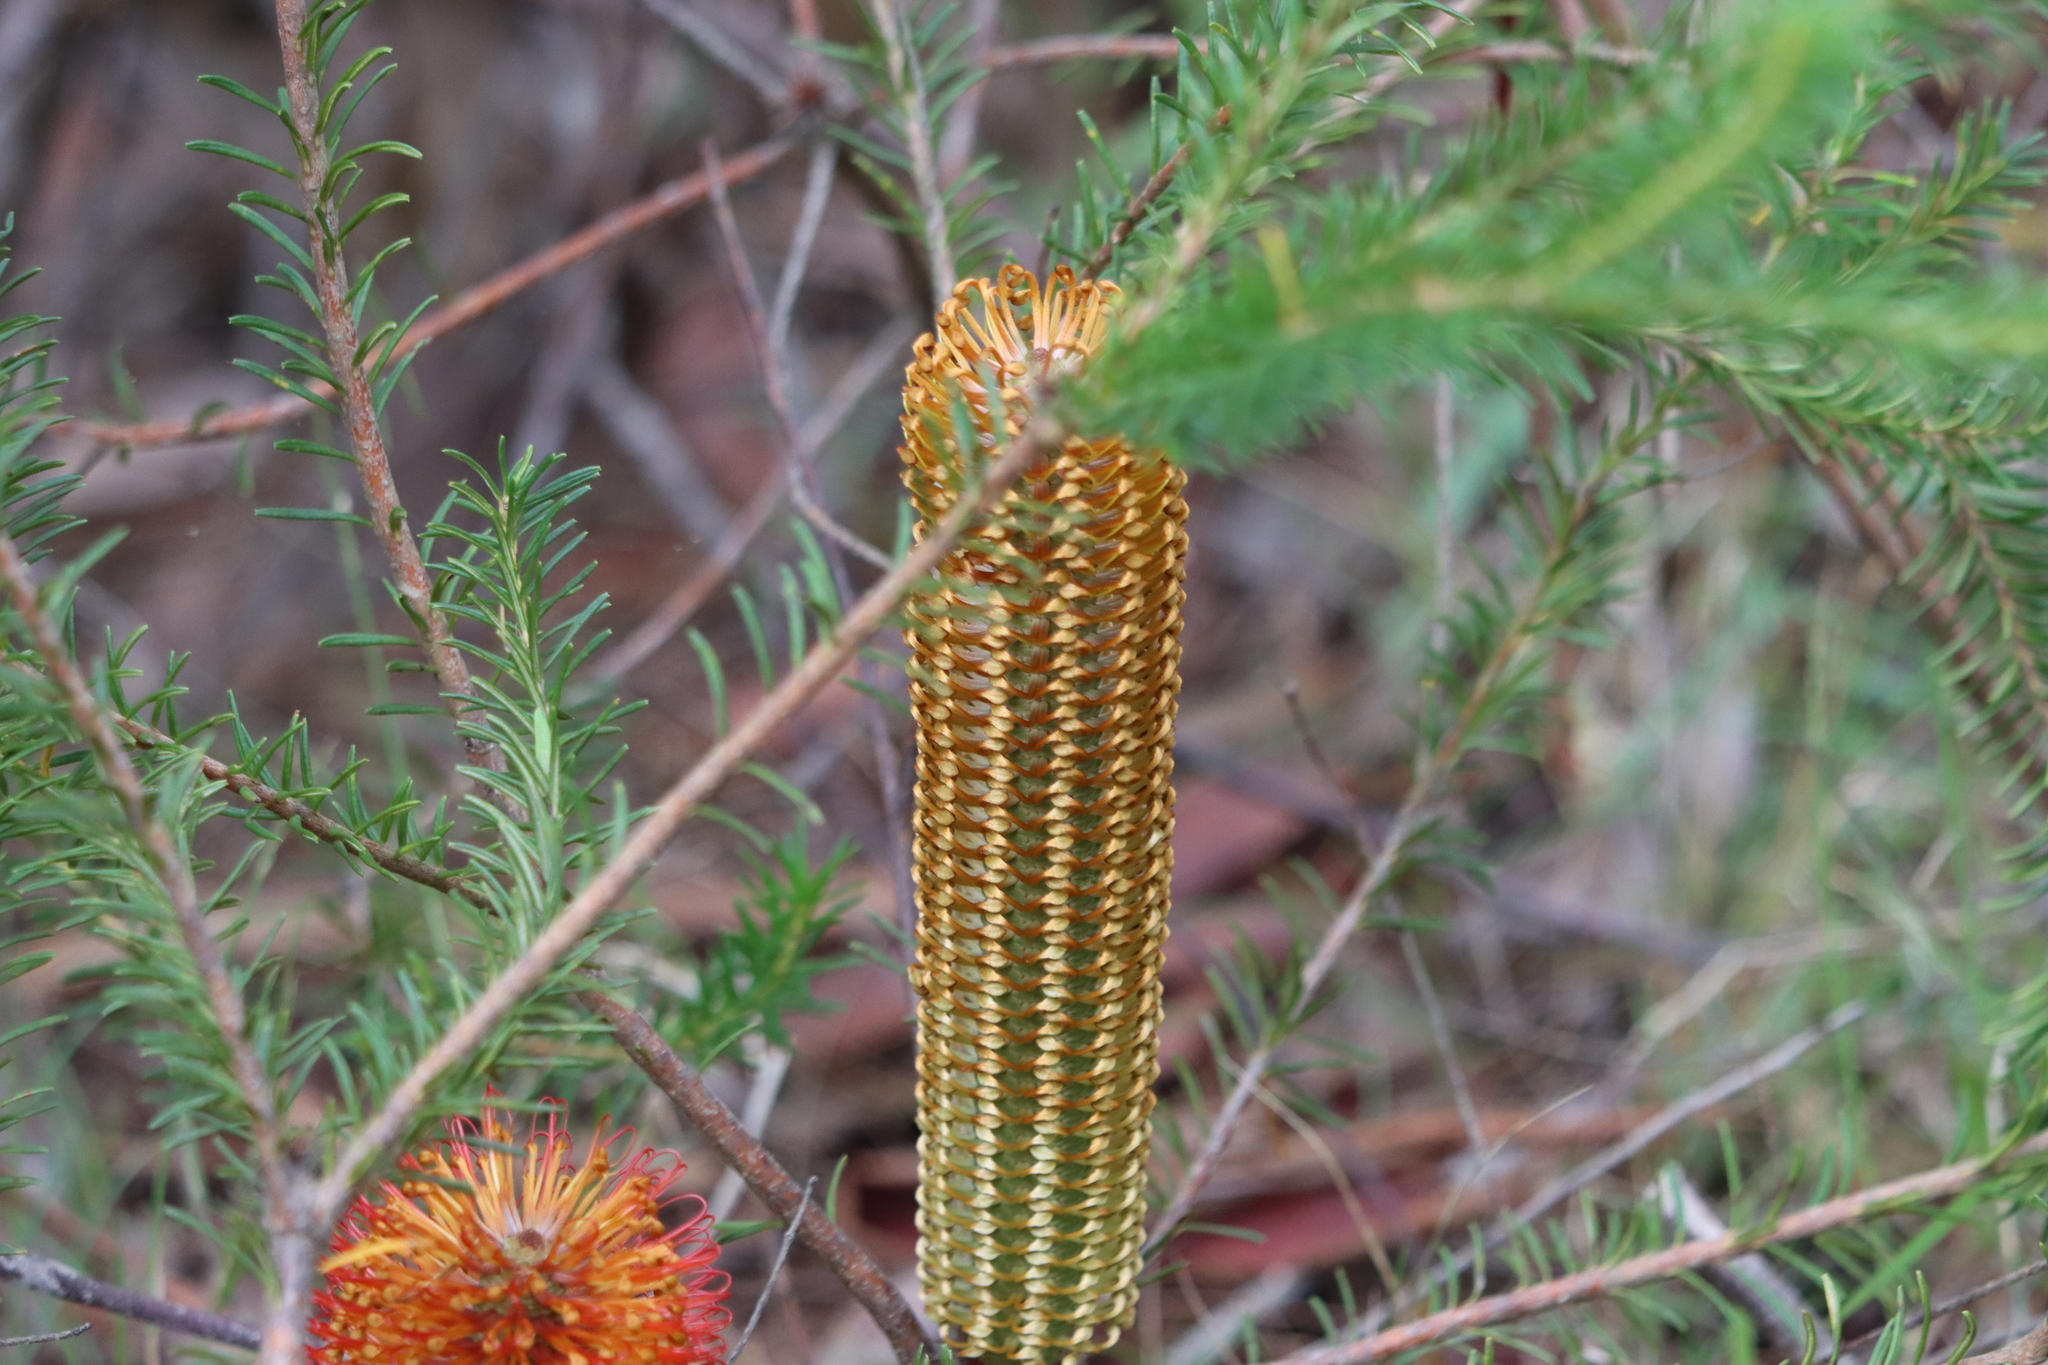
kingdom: Plantae
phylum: Tracheophyta
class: Magnoliopsida
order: Proteales
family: Proteaceae
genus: Banksia
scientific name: Banksia ericifolia
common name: Heath-leaf banksia
